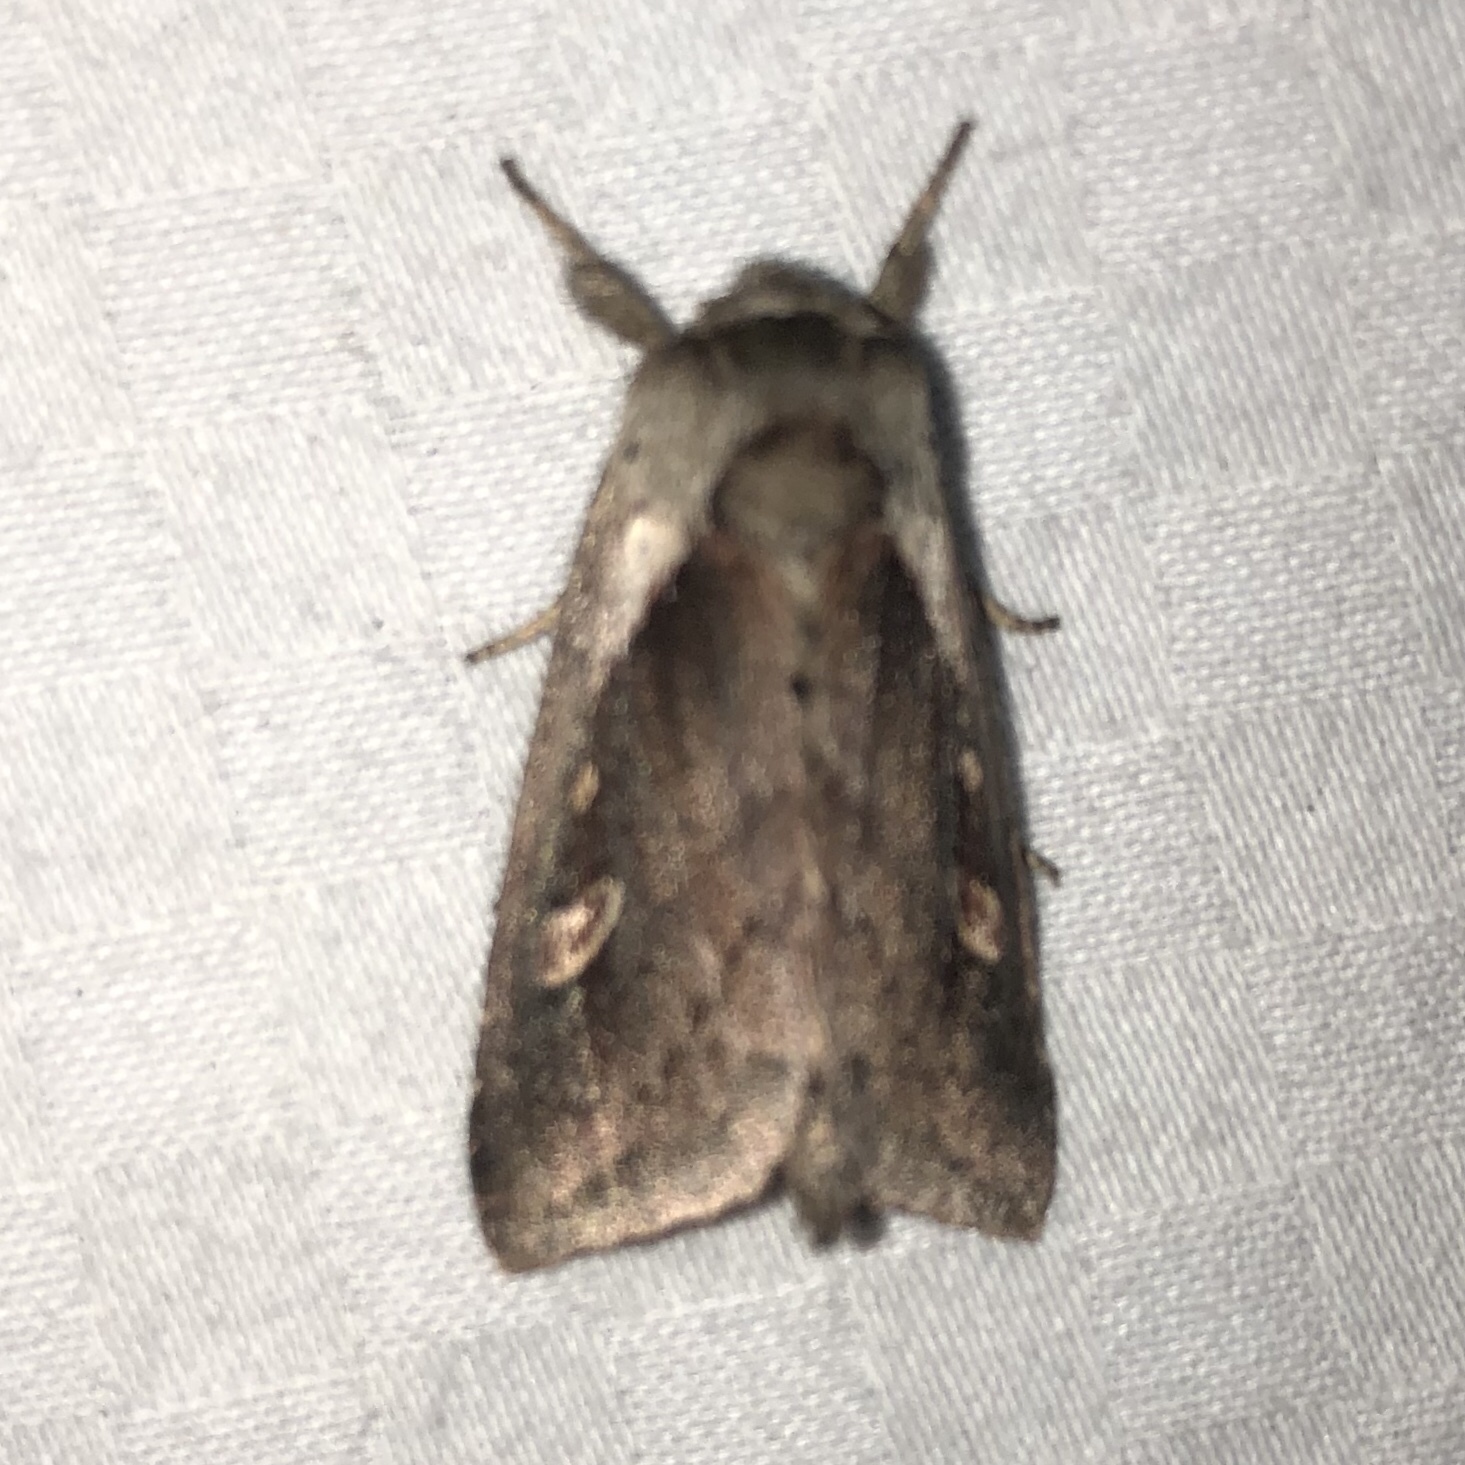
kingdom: Animalia
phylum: Arthropoda
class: Insecta
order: Lepidoptera
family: Noctuidae
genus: Bellura
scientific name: Bellura obliqua
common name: Cattail borer moth
